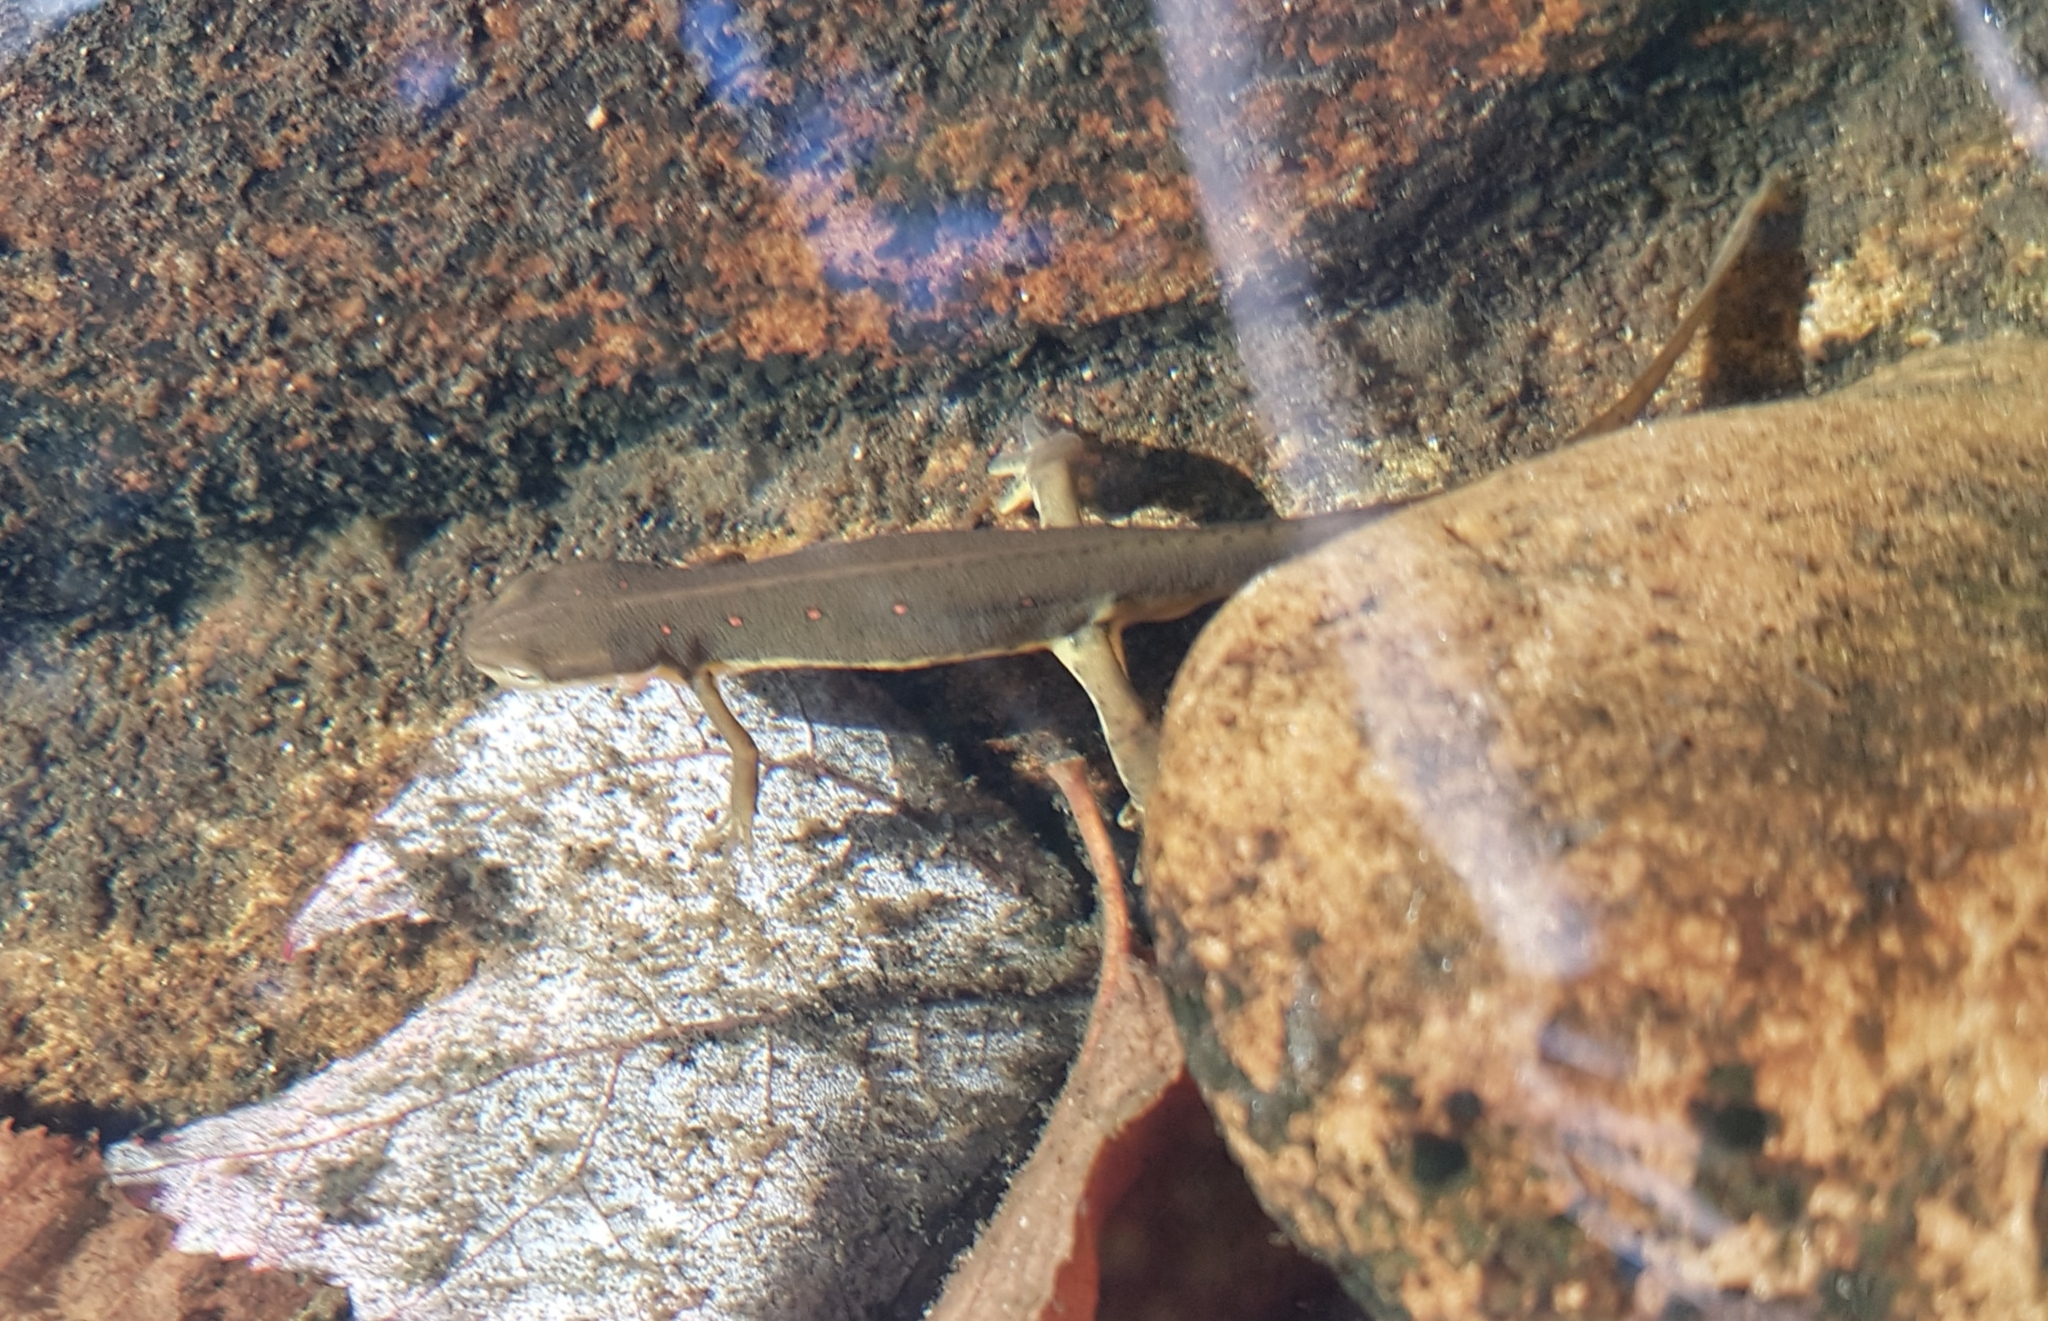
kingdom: Animalia
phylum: Chordata
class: Amphibia
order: Caudata
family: Salamandridae
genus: Notophthalmus
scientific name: Notophthalmus viridescens
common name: Eastern newt
